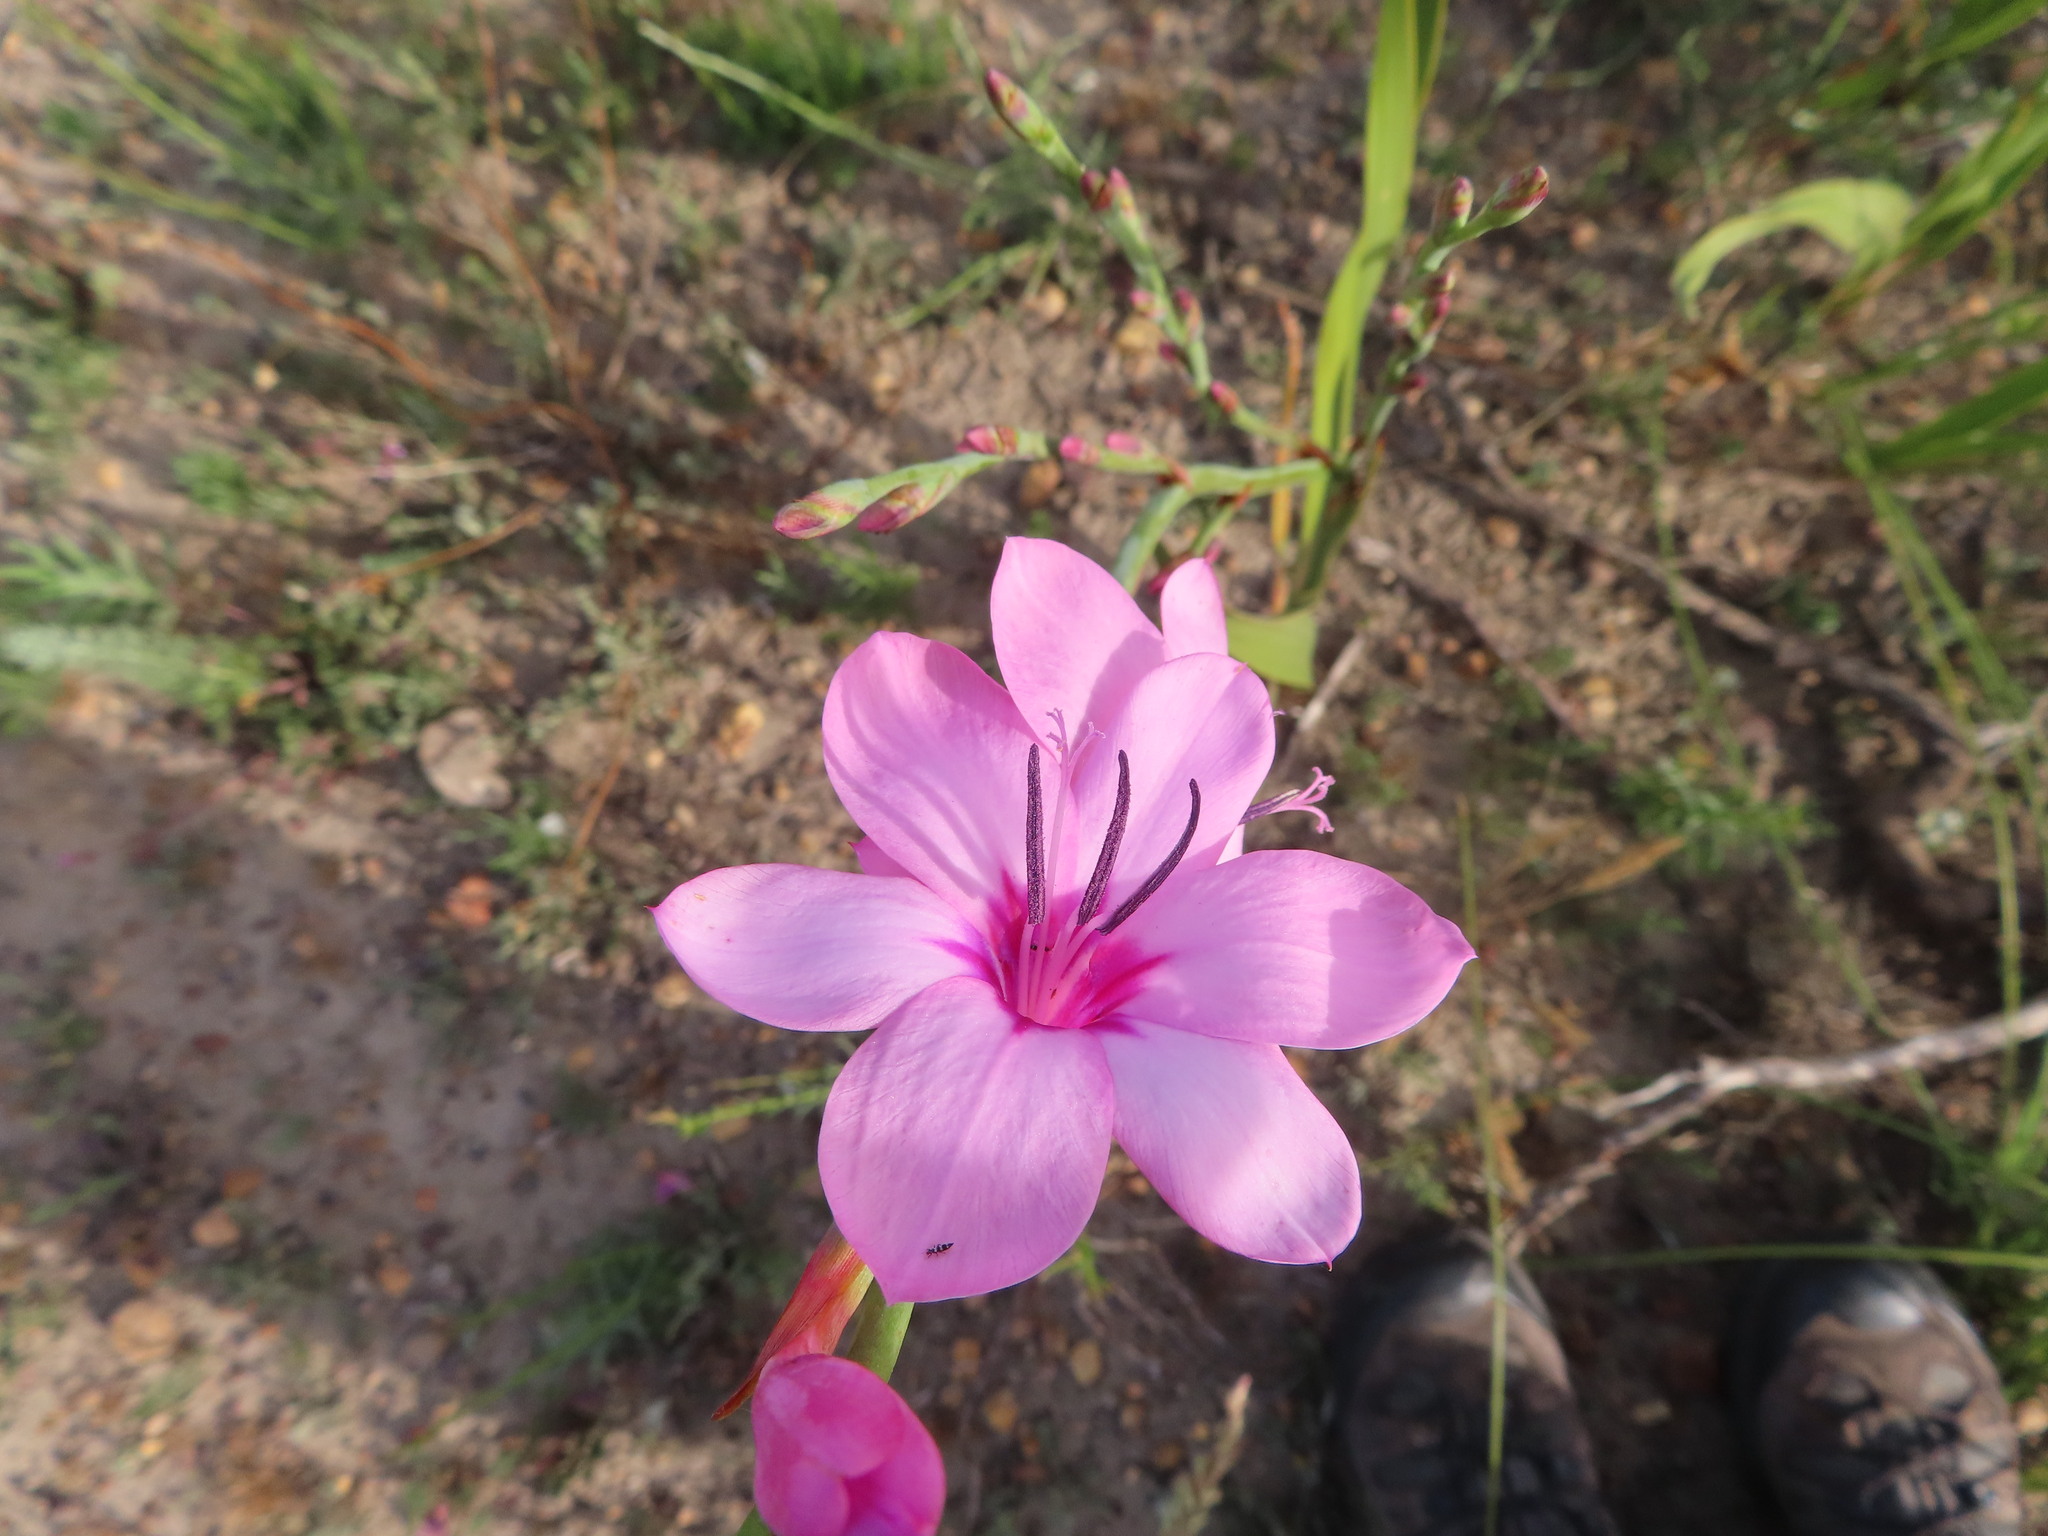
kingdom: Plantae
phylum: Tracheophyta
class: Liliopsida
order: Asparagales
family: Iridaceae
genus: Watsonia
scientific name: Watsonia borbonica
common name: Bugle-lily
